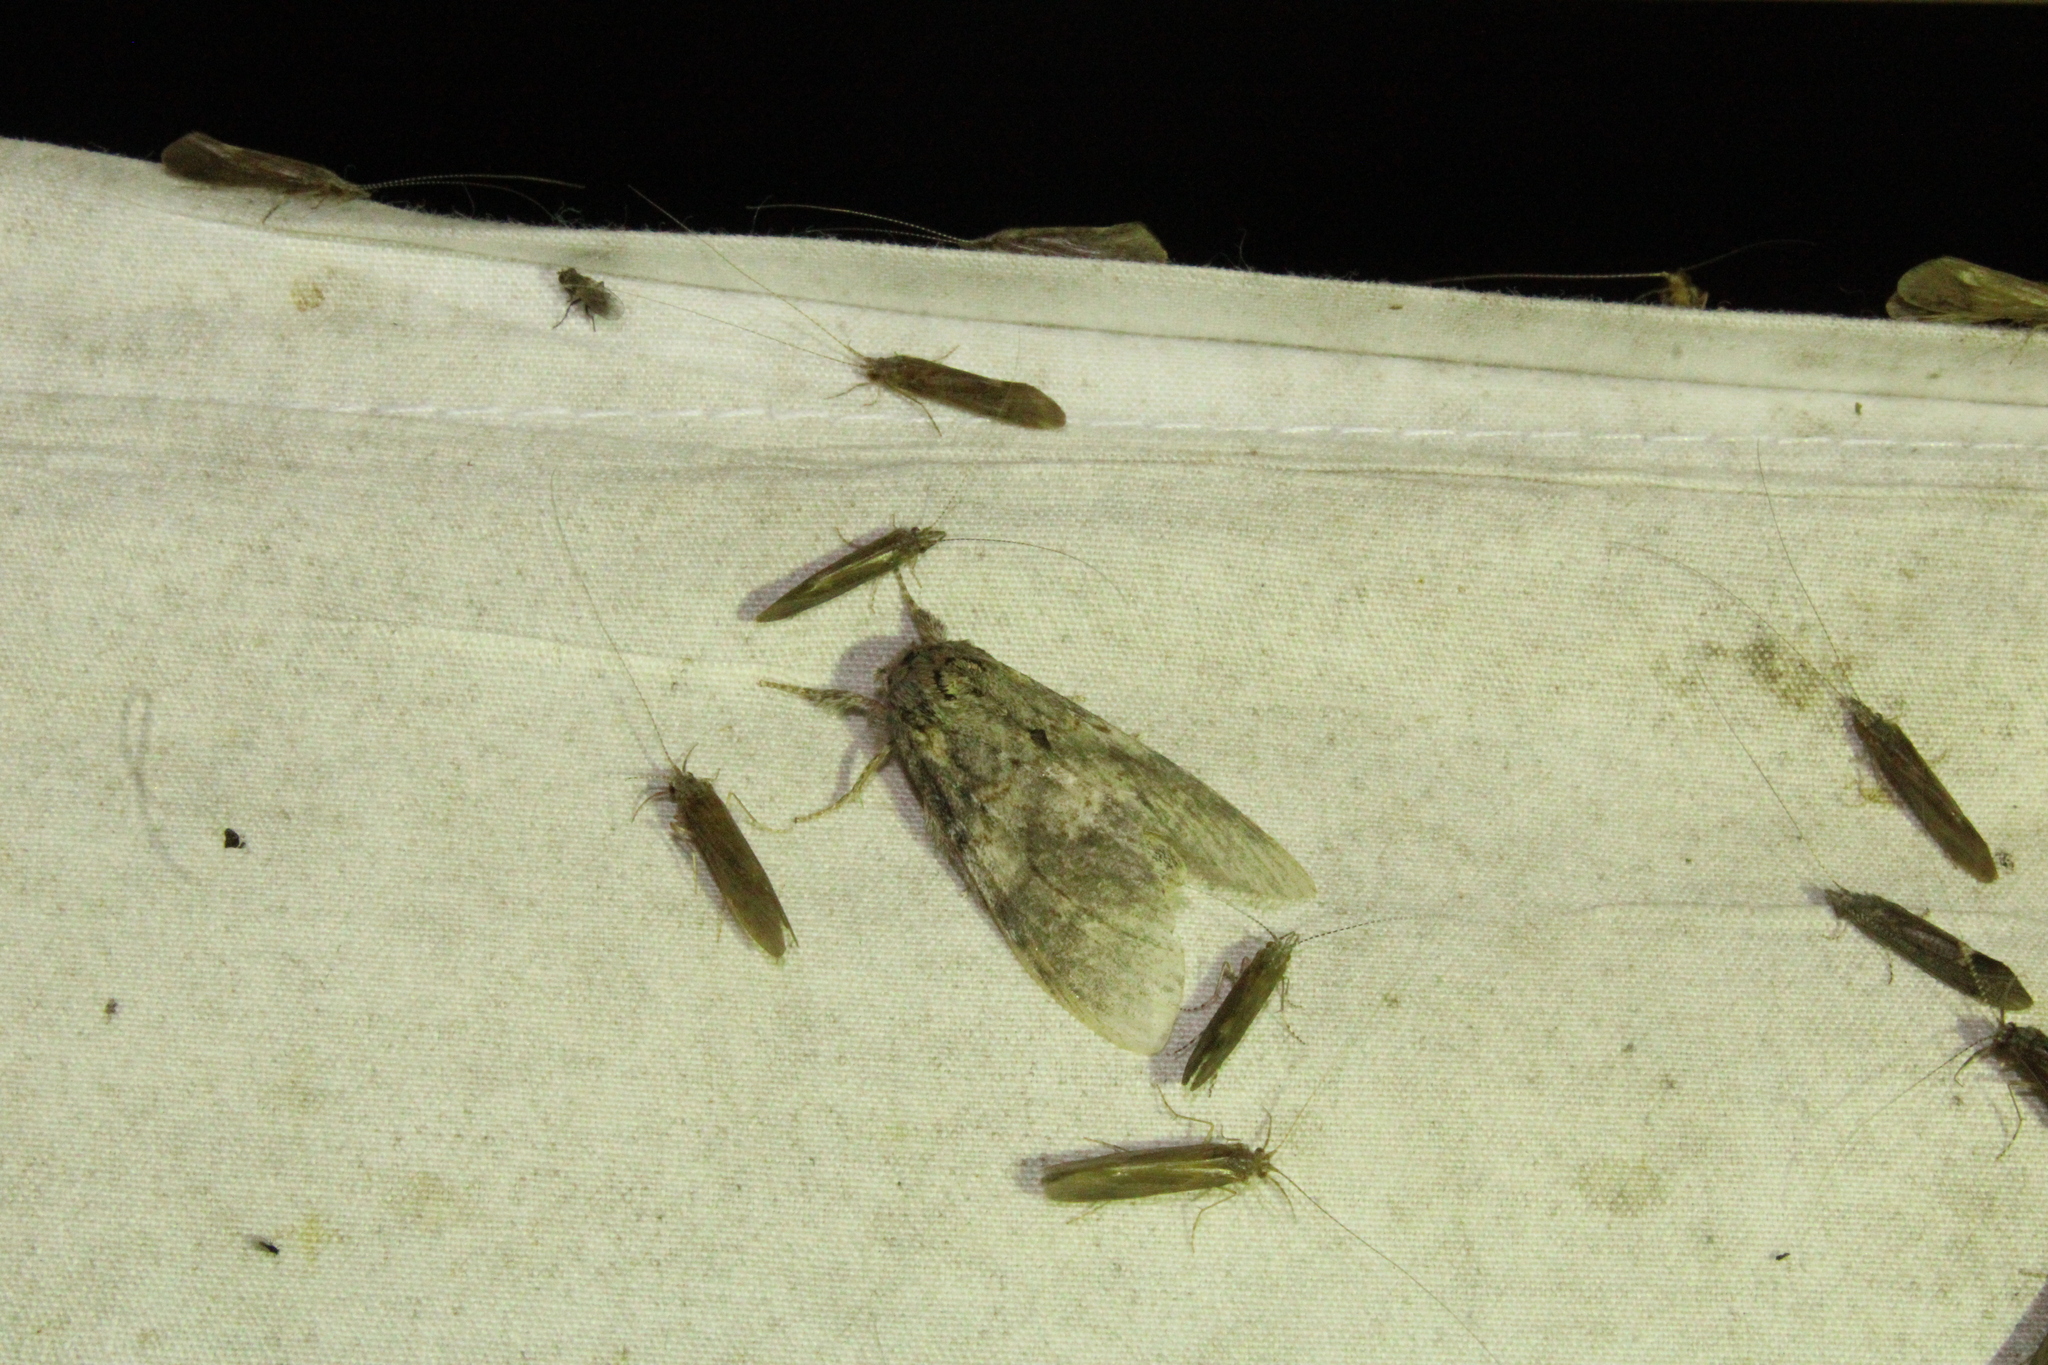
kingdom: Animalia
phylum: Arthropoda
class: Insecta
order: Lepidoptera
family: Notodontidae
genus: Peridea
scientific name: Peridea angulosa
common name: Angulose prominent
